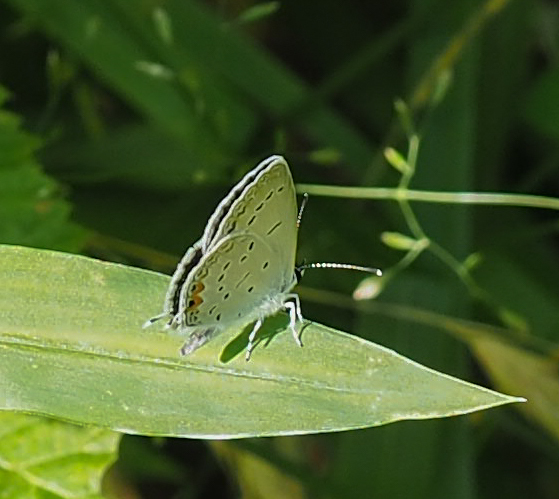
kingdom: Animalia
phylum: Arthropoda
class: Insecta
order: Lepidoptera
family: Lycaenidae
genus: Elkalyce
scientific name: Elkalyce comyntas
